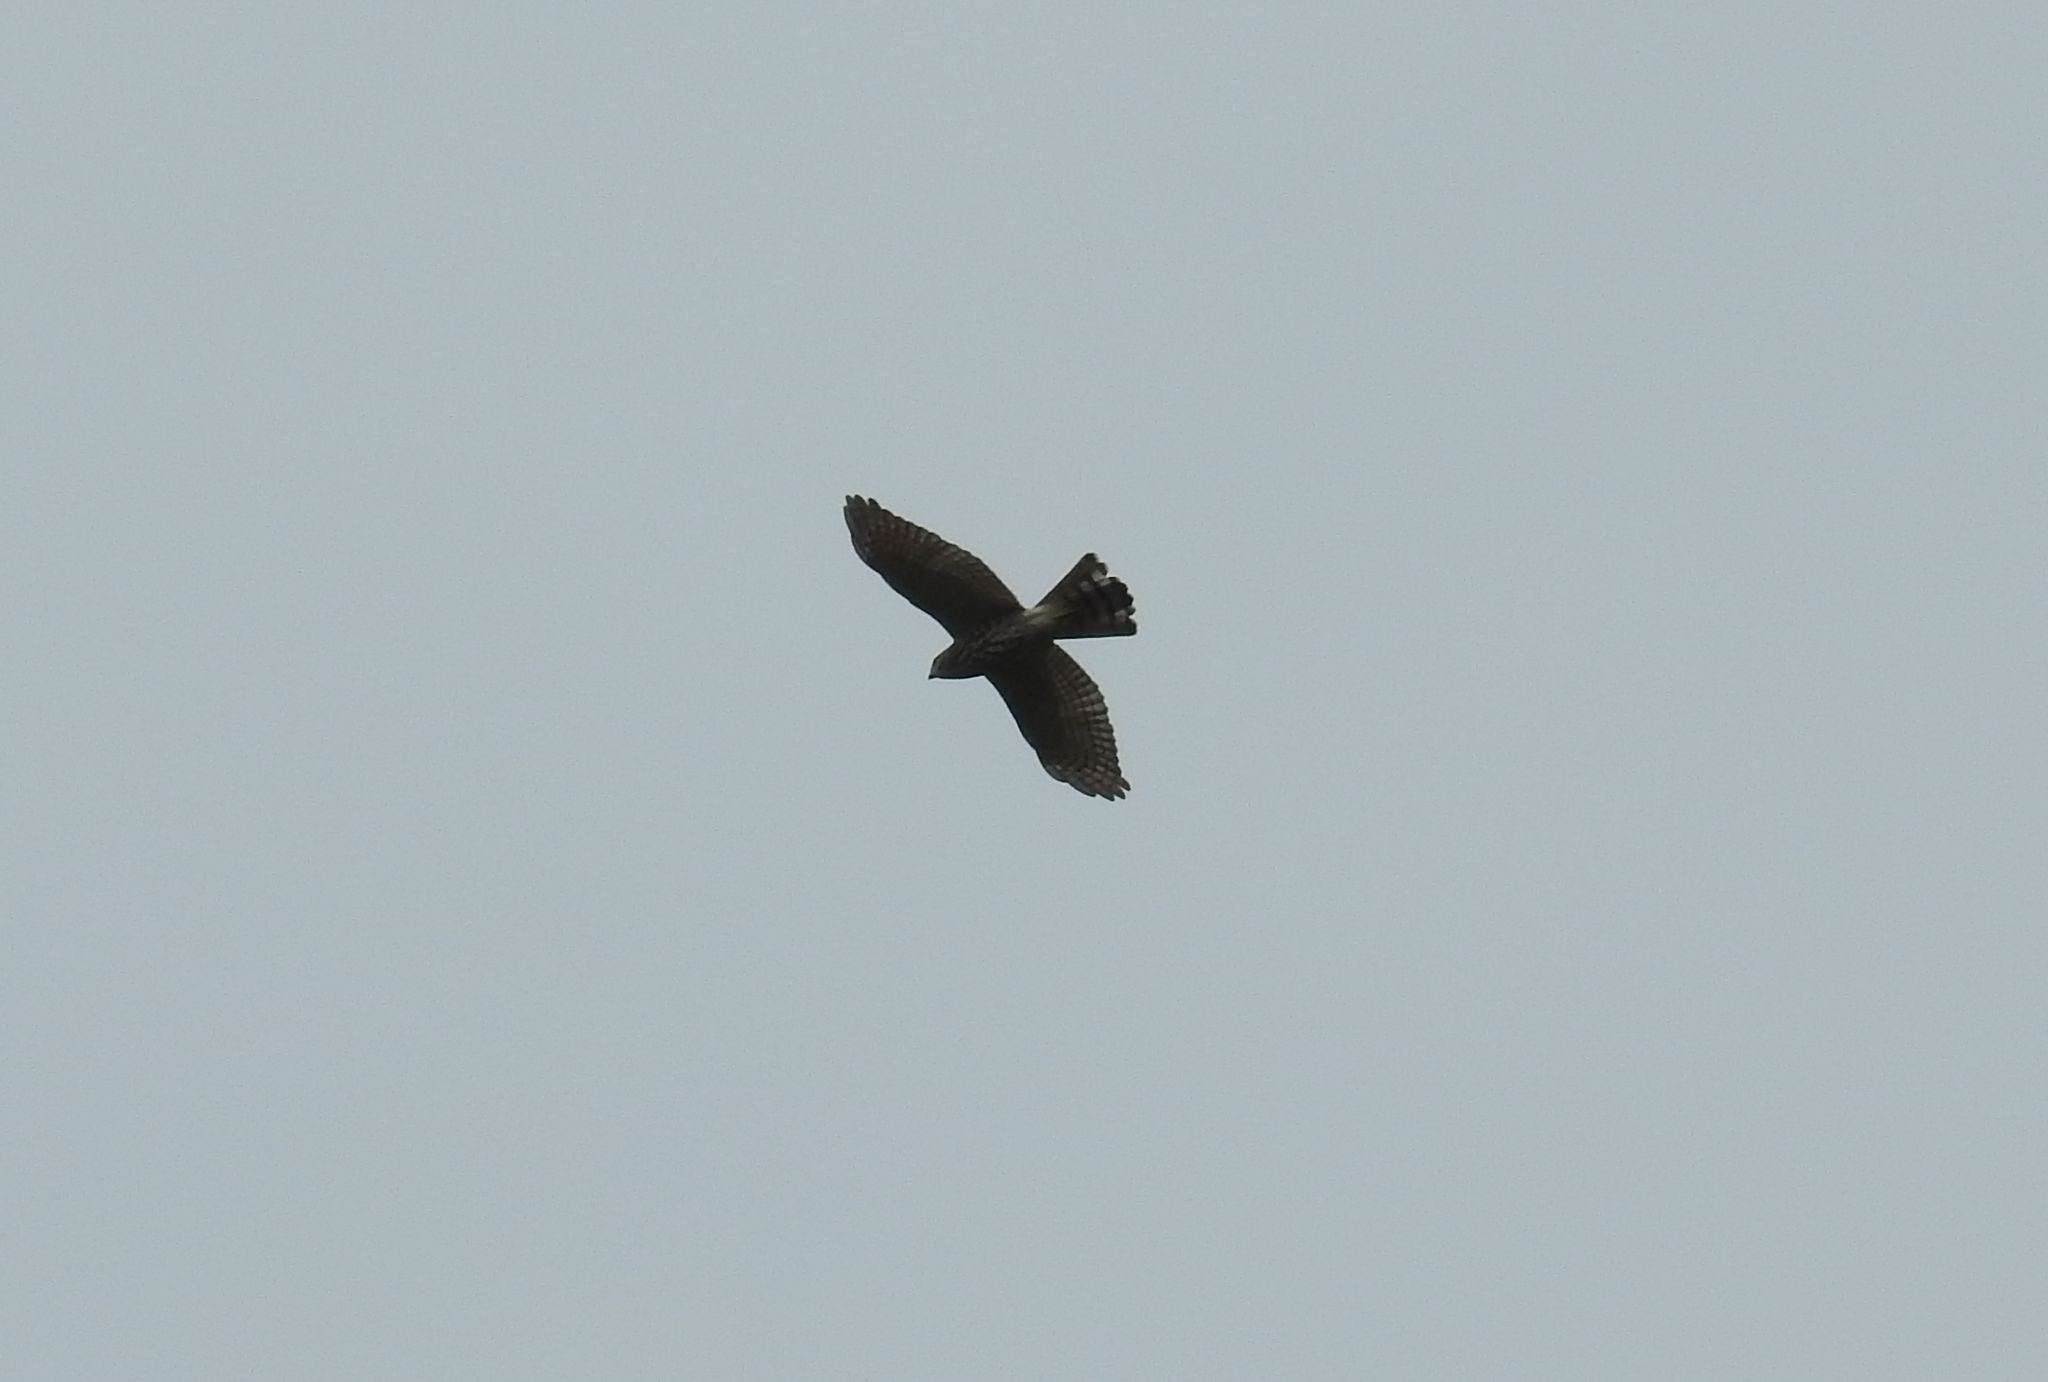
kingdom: Animalia
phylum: Chordata
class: Aves
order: Accipitriformes
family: Accipitridae
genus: Accipiter
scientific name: Accipiter badius
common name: Shikra
